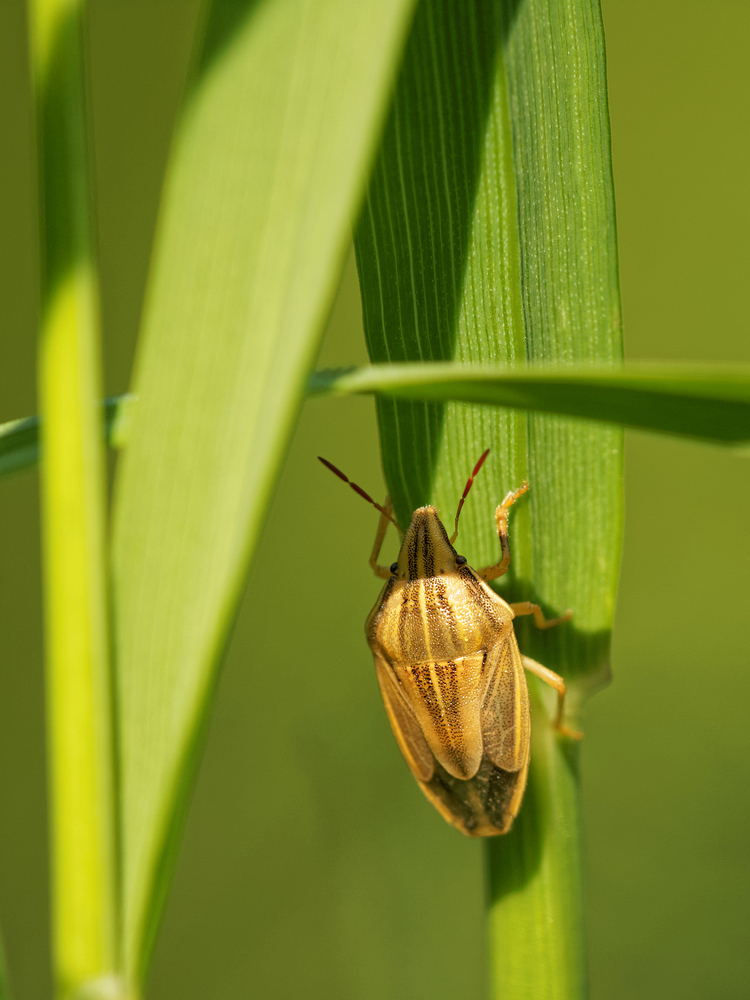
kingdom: Animalia
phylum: Arthropoda
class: Insecta
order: Hemiptera
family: Pentatomidae
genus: Aelia
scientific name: Aelia acuminata
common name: Bishop's mitre
